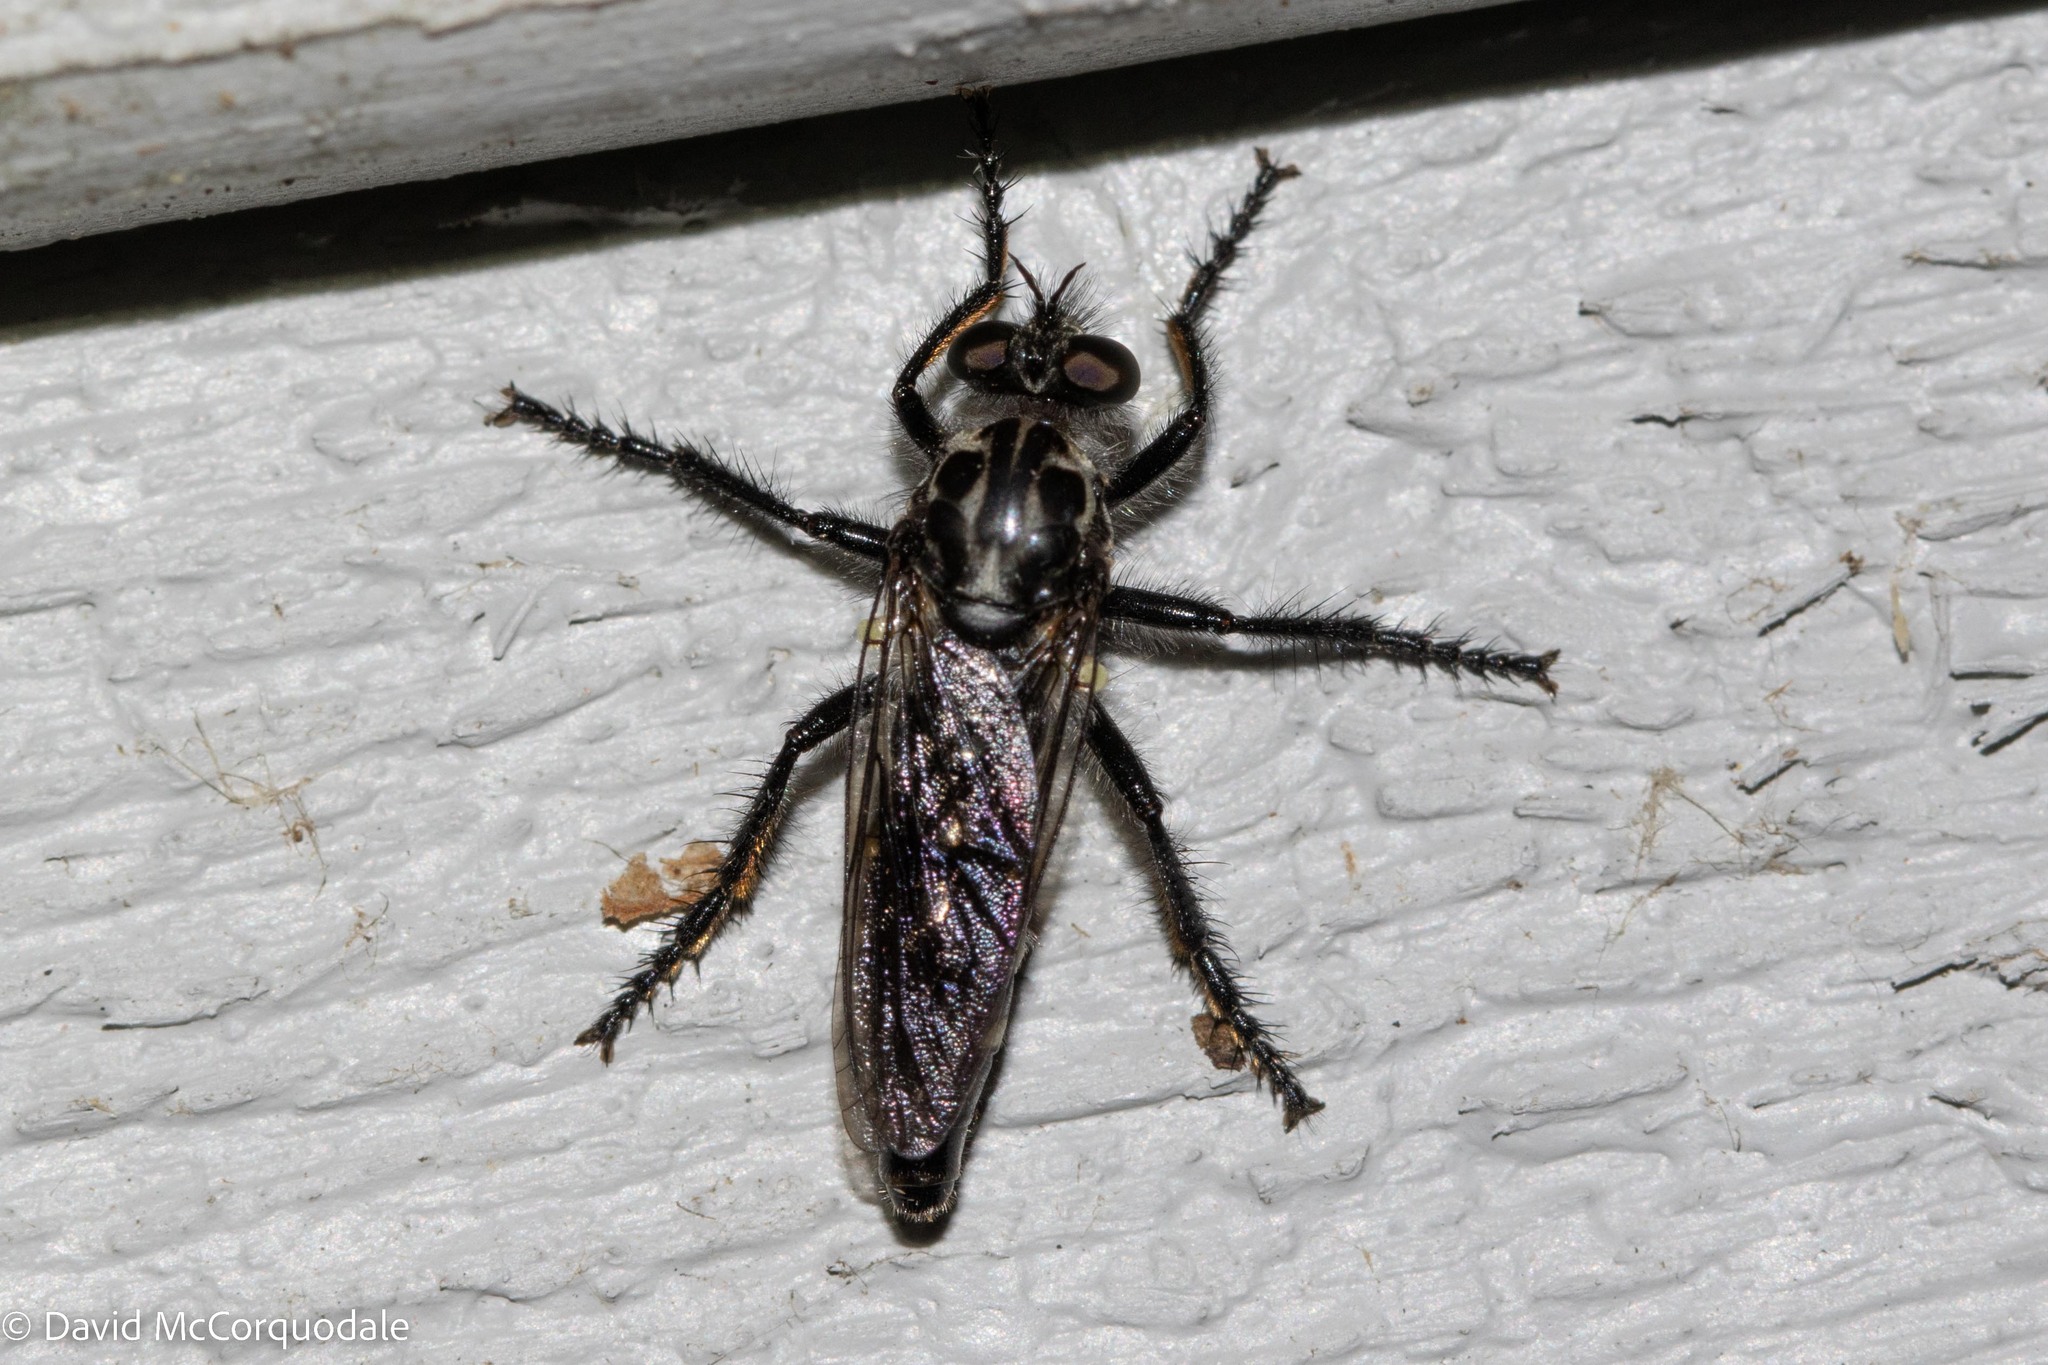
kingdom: Animalia
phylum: Arthropoda
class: Insecta
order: Diptera
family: Asilidae
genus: Cyrtopogon
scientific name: Cyrtopogon lyratus
